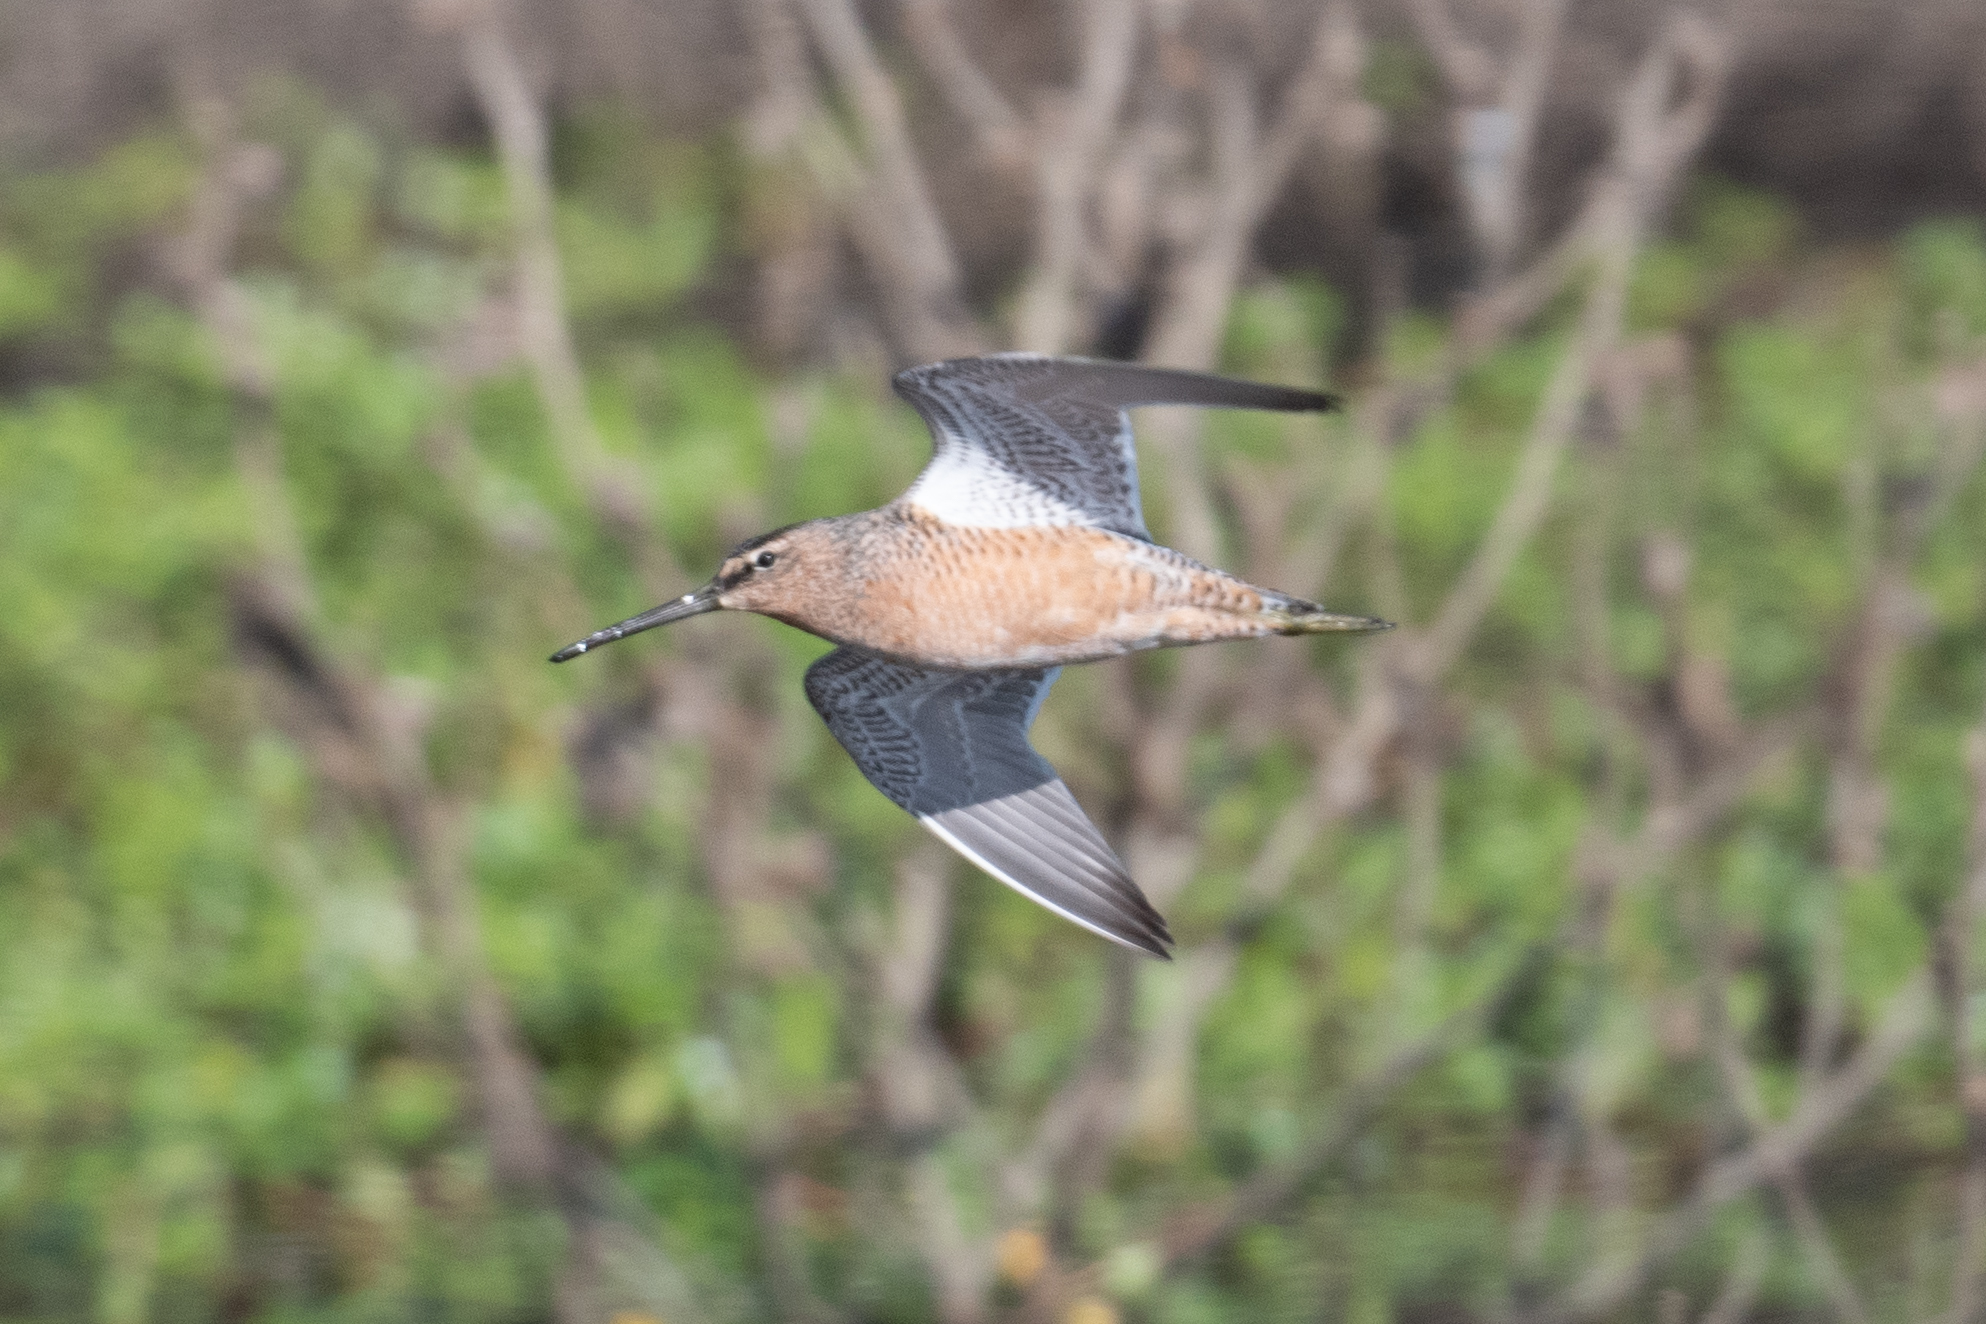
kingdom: Animalia
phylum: Chordata
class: Aves
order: Charadriiformes
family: Scolopacidae
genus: Limnodromus
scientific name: Limnodromus scolopaceus
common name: Long-billed dowitcher
